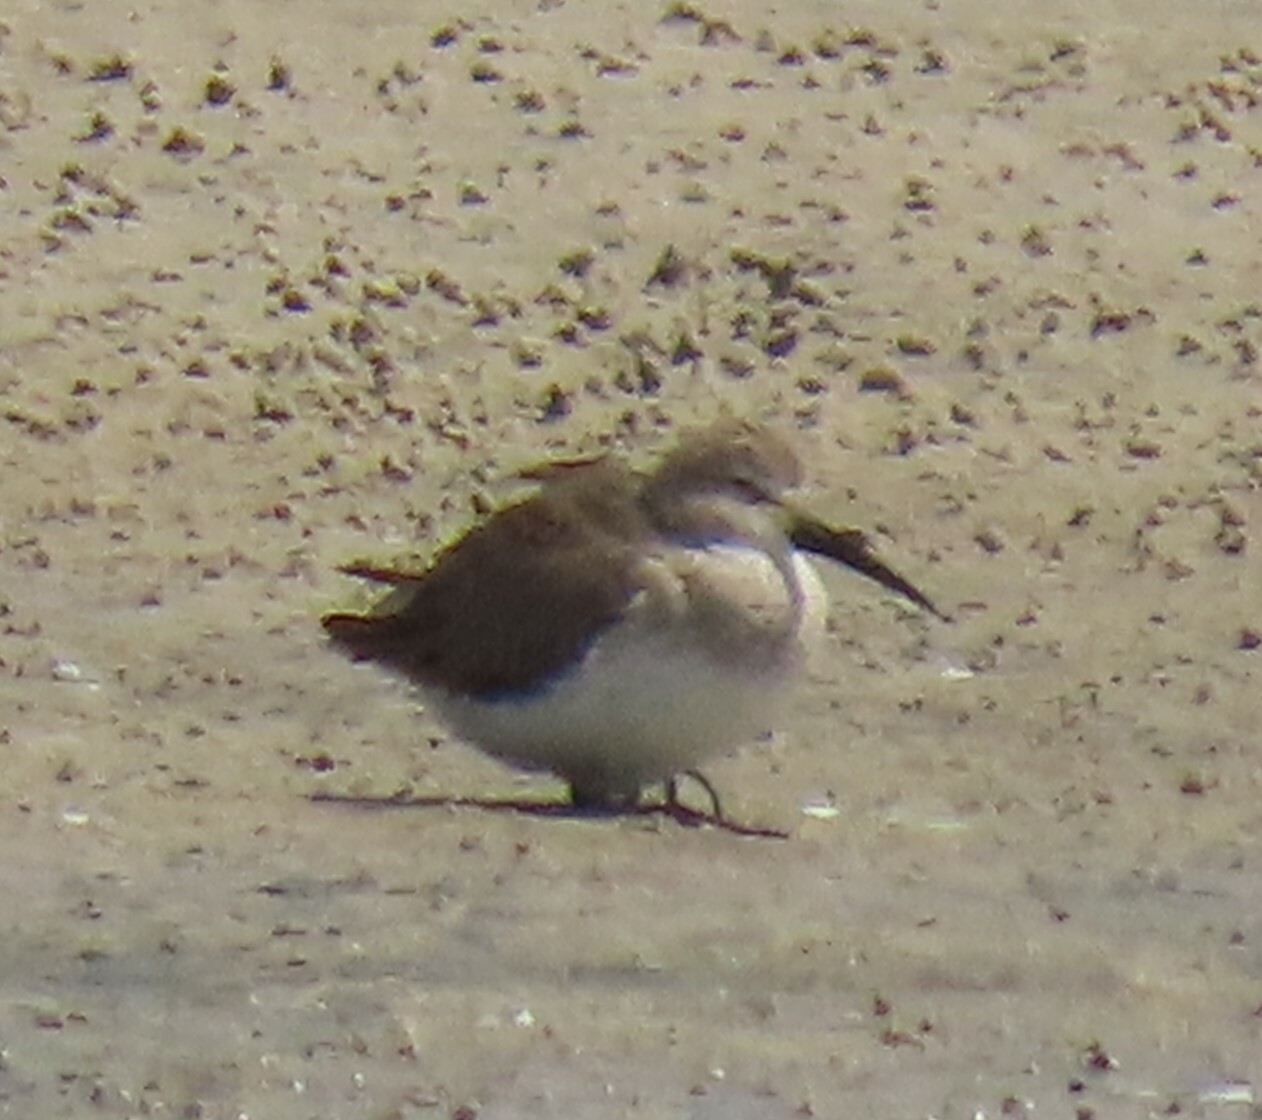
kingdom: Animalia
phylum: Chordata
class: Aves
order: Charadriiformes
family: Scolopacidae
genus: Calidris
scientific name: Calidris alpina
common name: Dunlin
